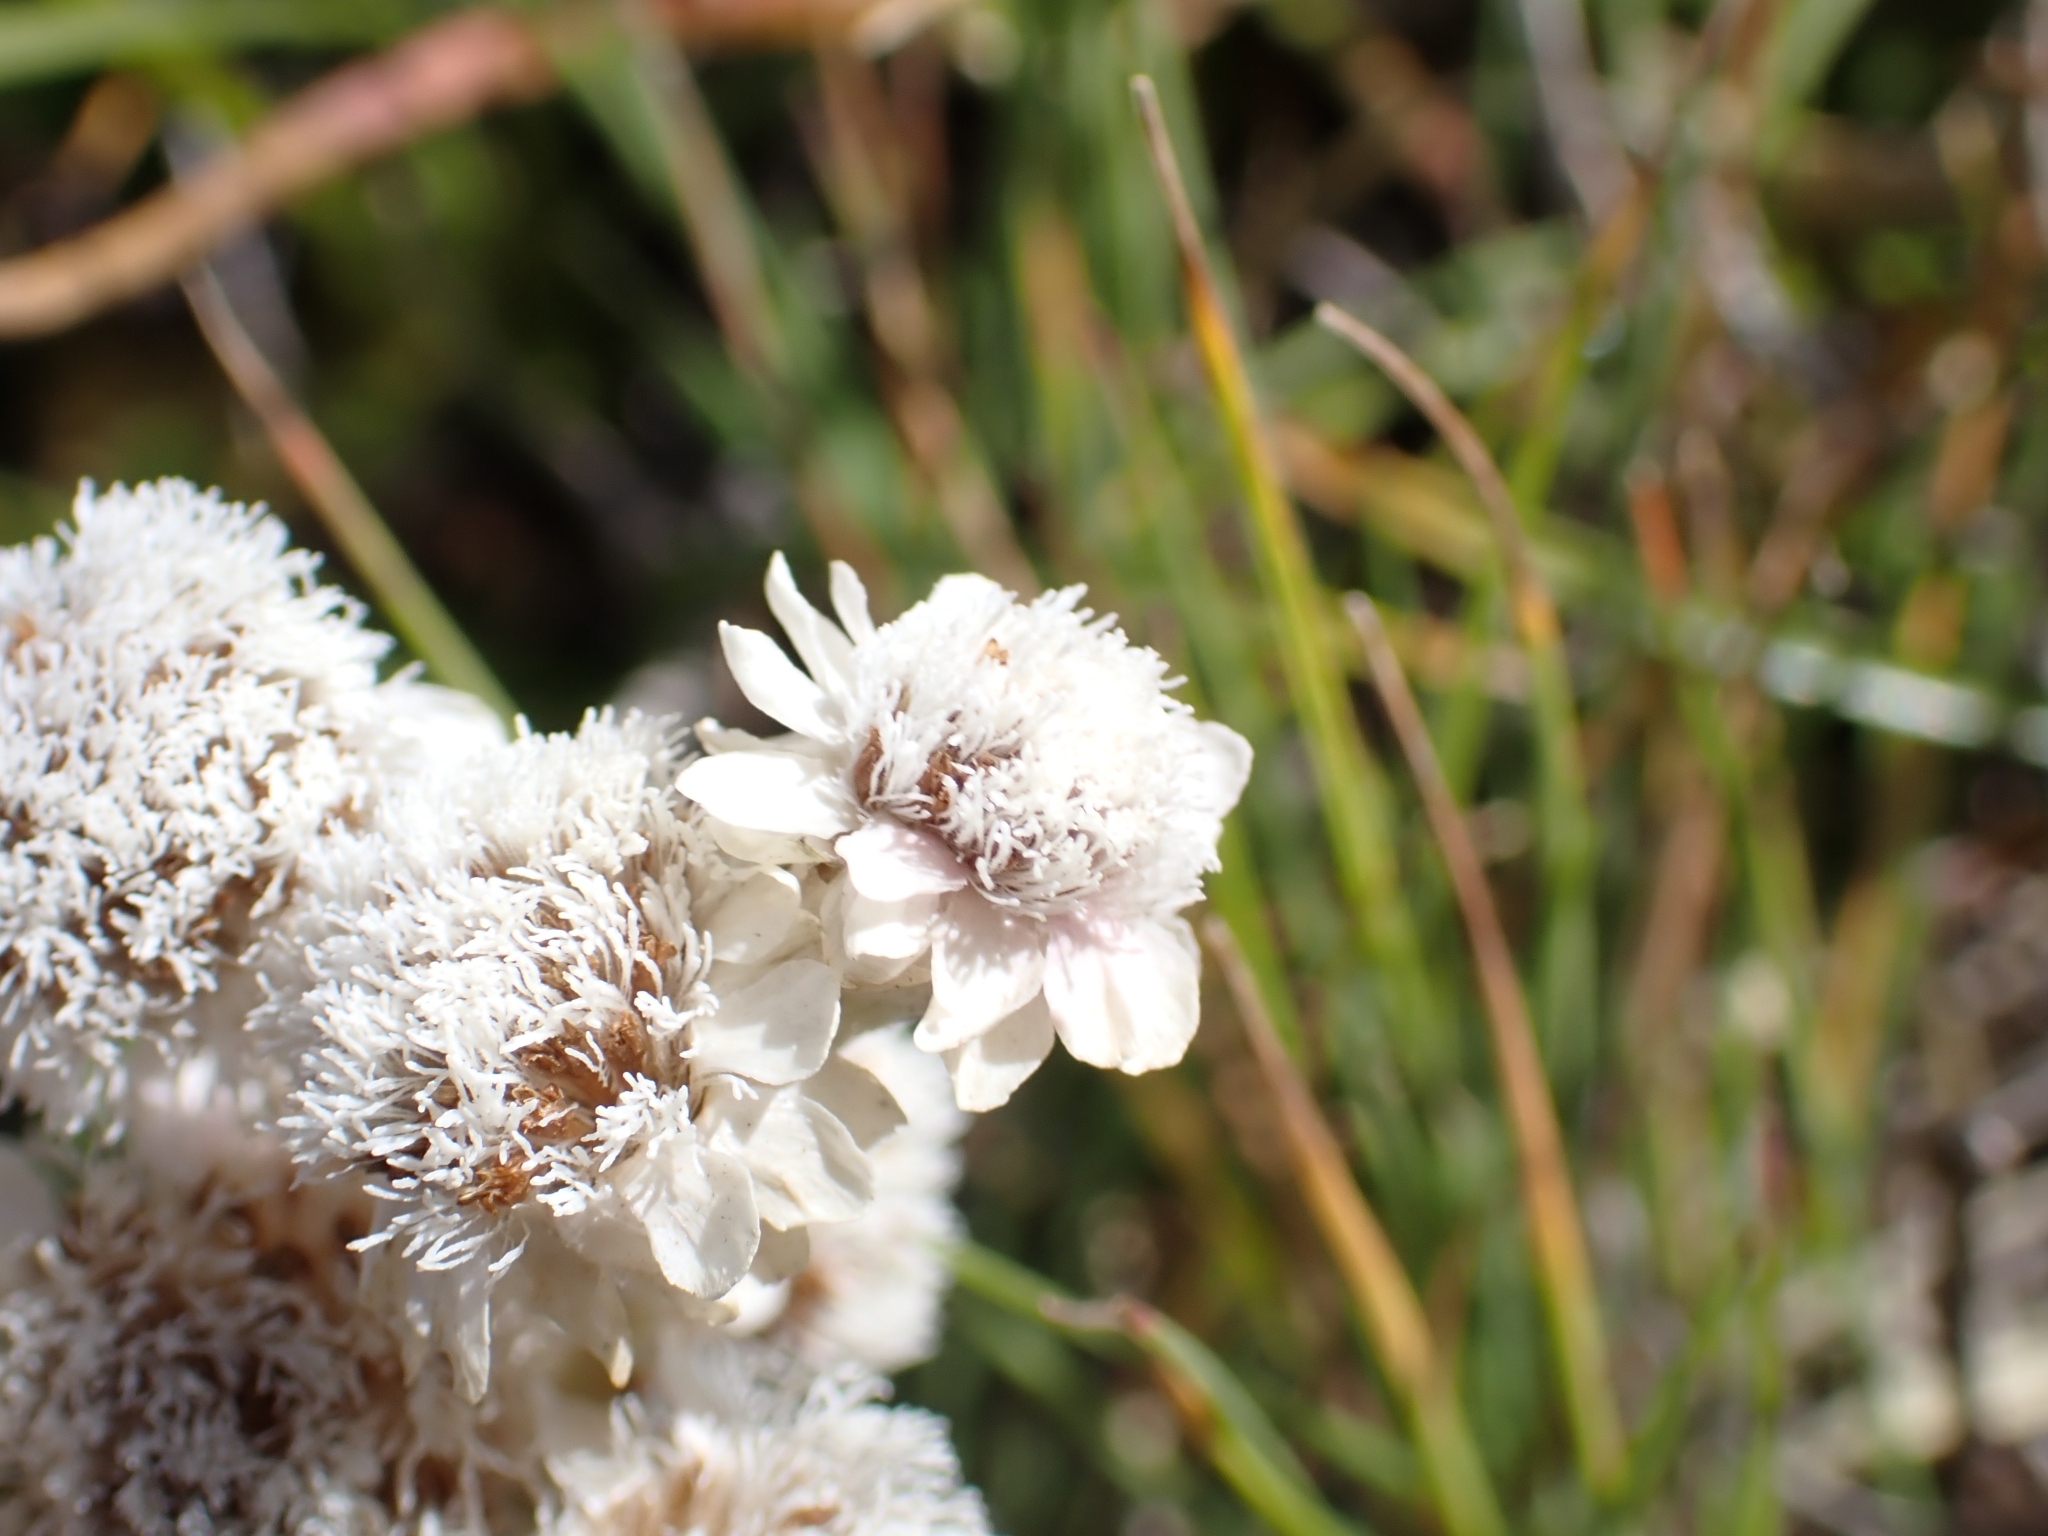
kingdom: Plantae
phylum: Tracheophyta
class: Magnoliopsida
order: Asterales
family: Asteraceae
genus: Antennaria
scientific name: Antennaria dioica
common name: Mountain everlasting
